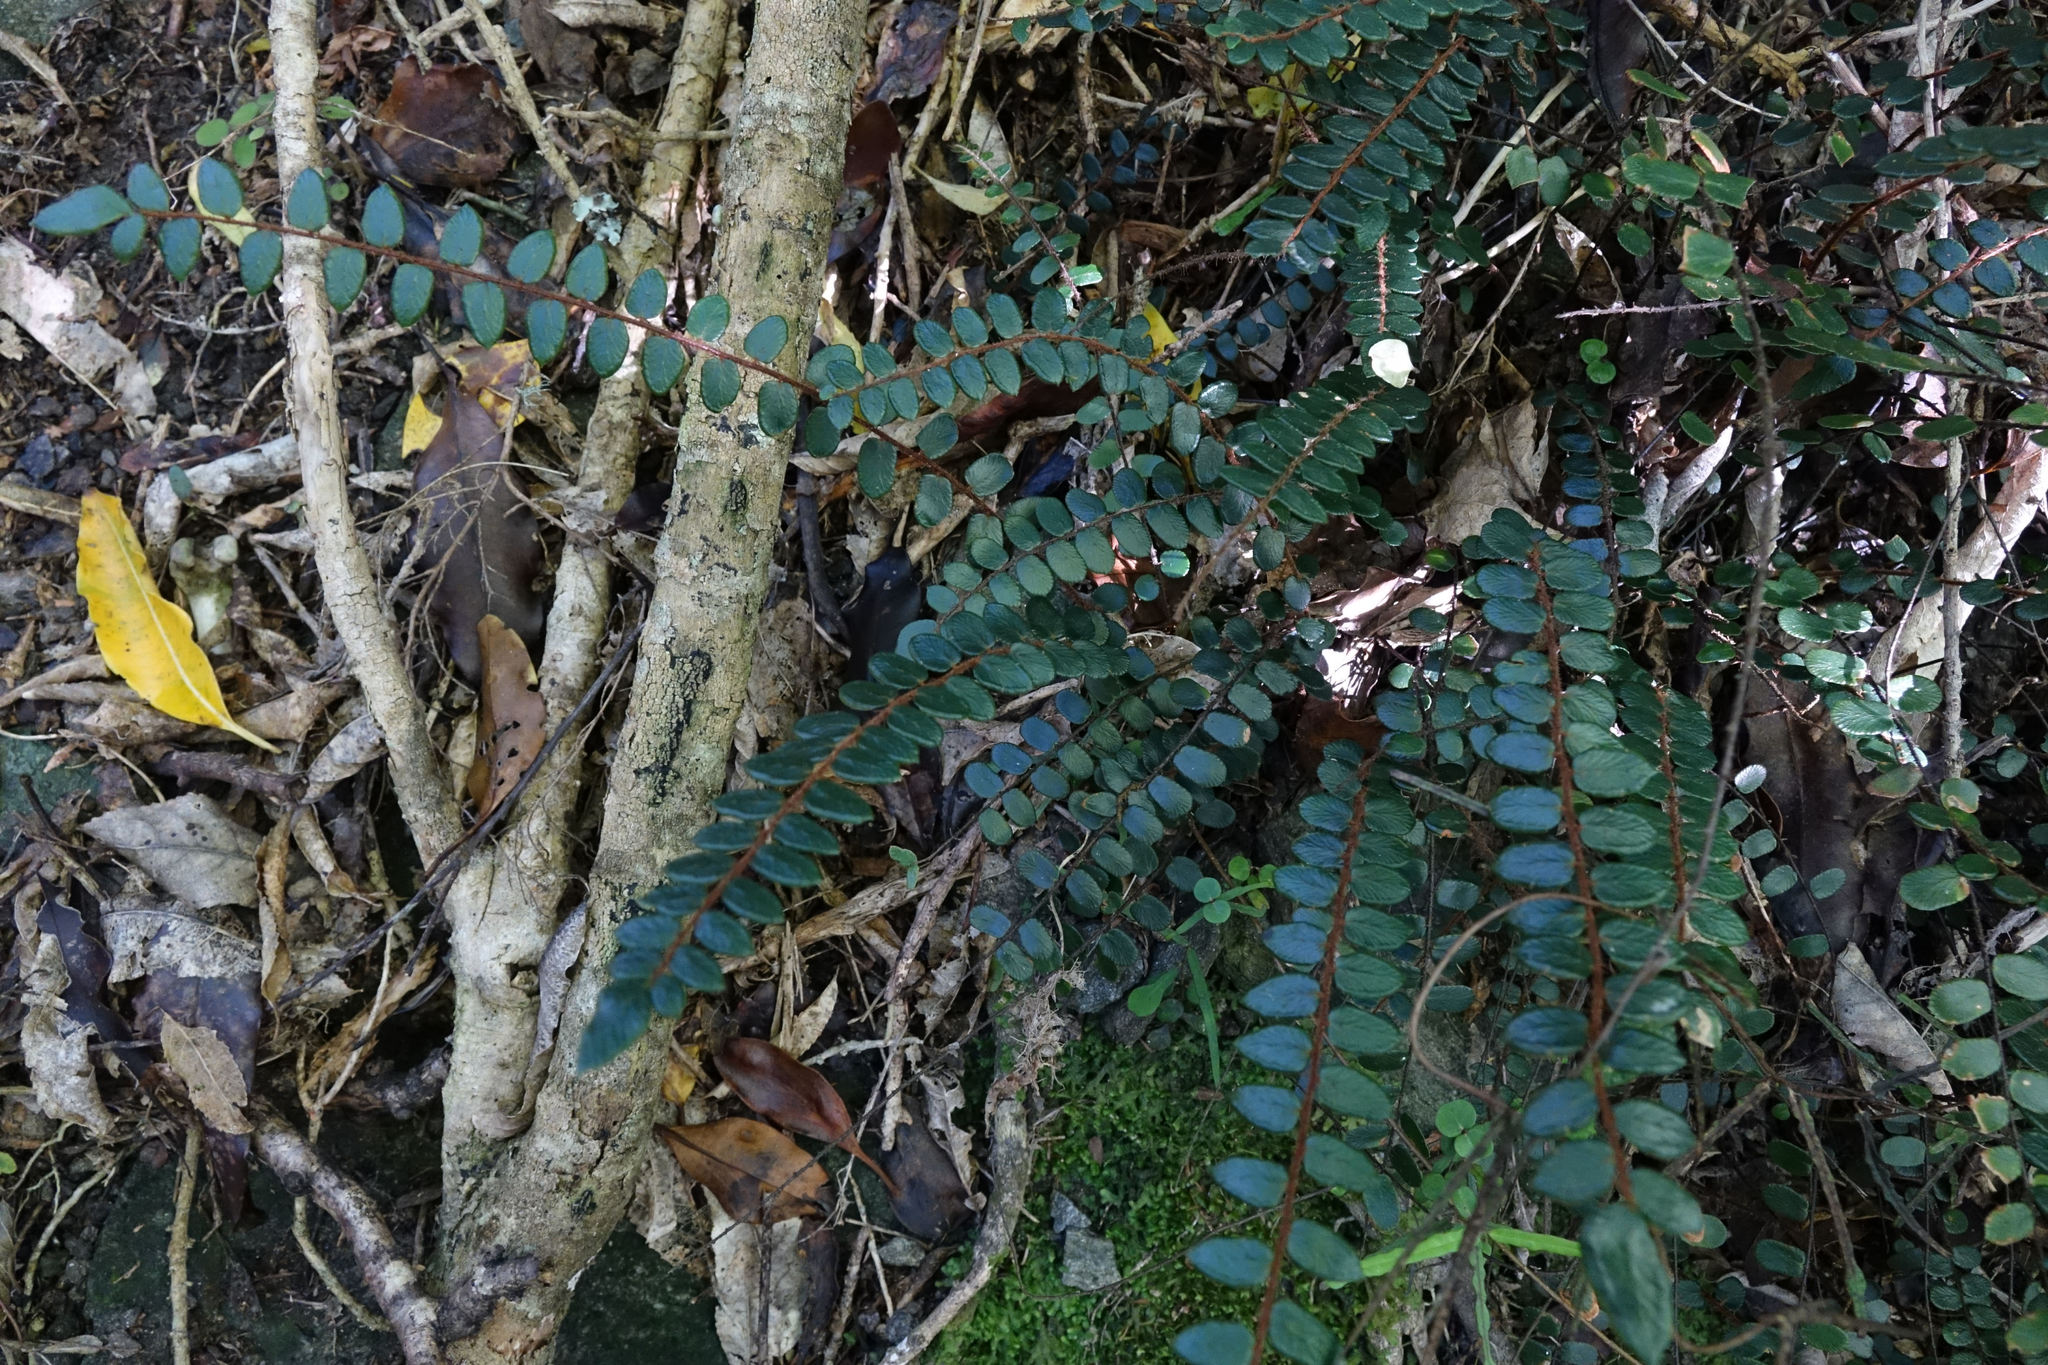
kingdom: Plantae
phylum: Tracheophyta
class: Polypodiopsida
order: Polypodiales
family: Pteridaceae
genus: Pellaea
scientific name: Pellaea rotundifolia
